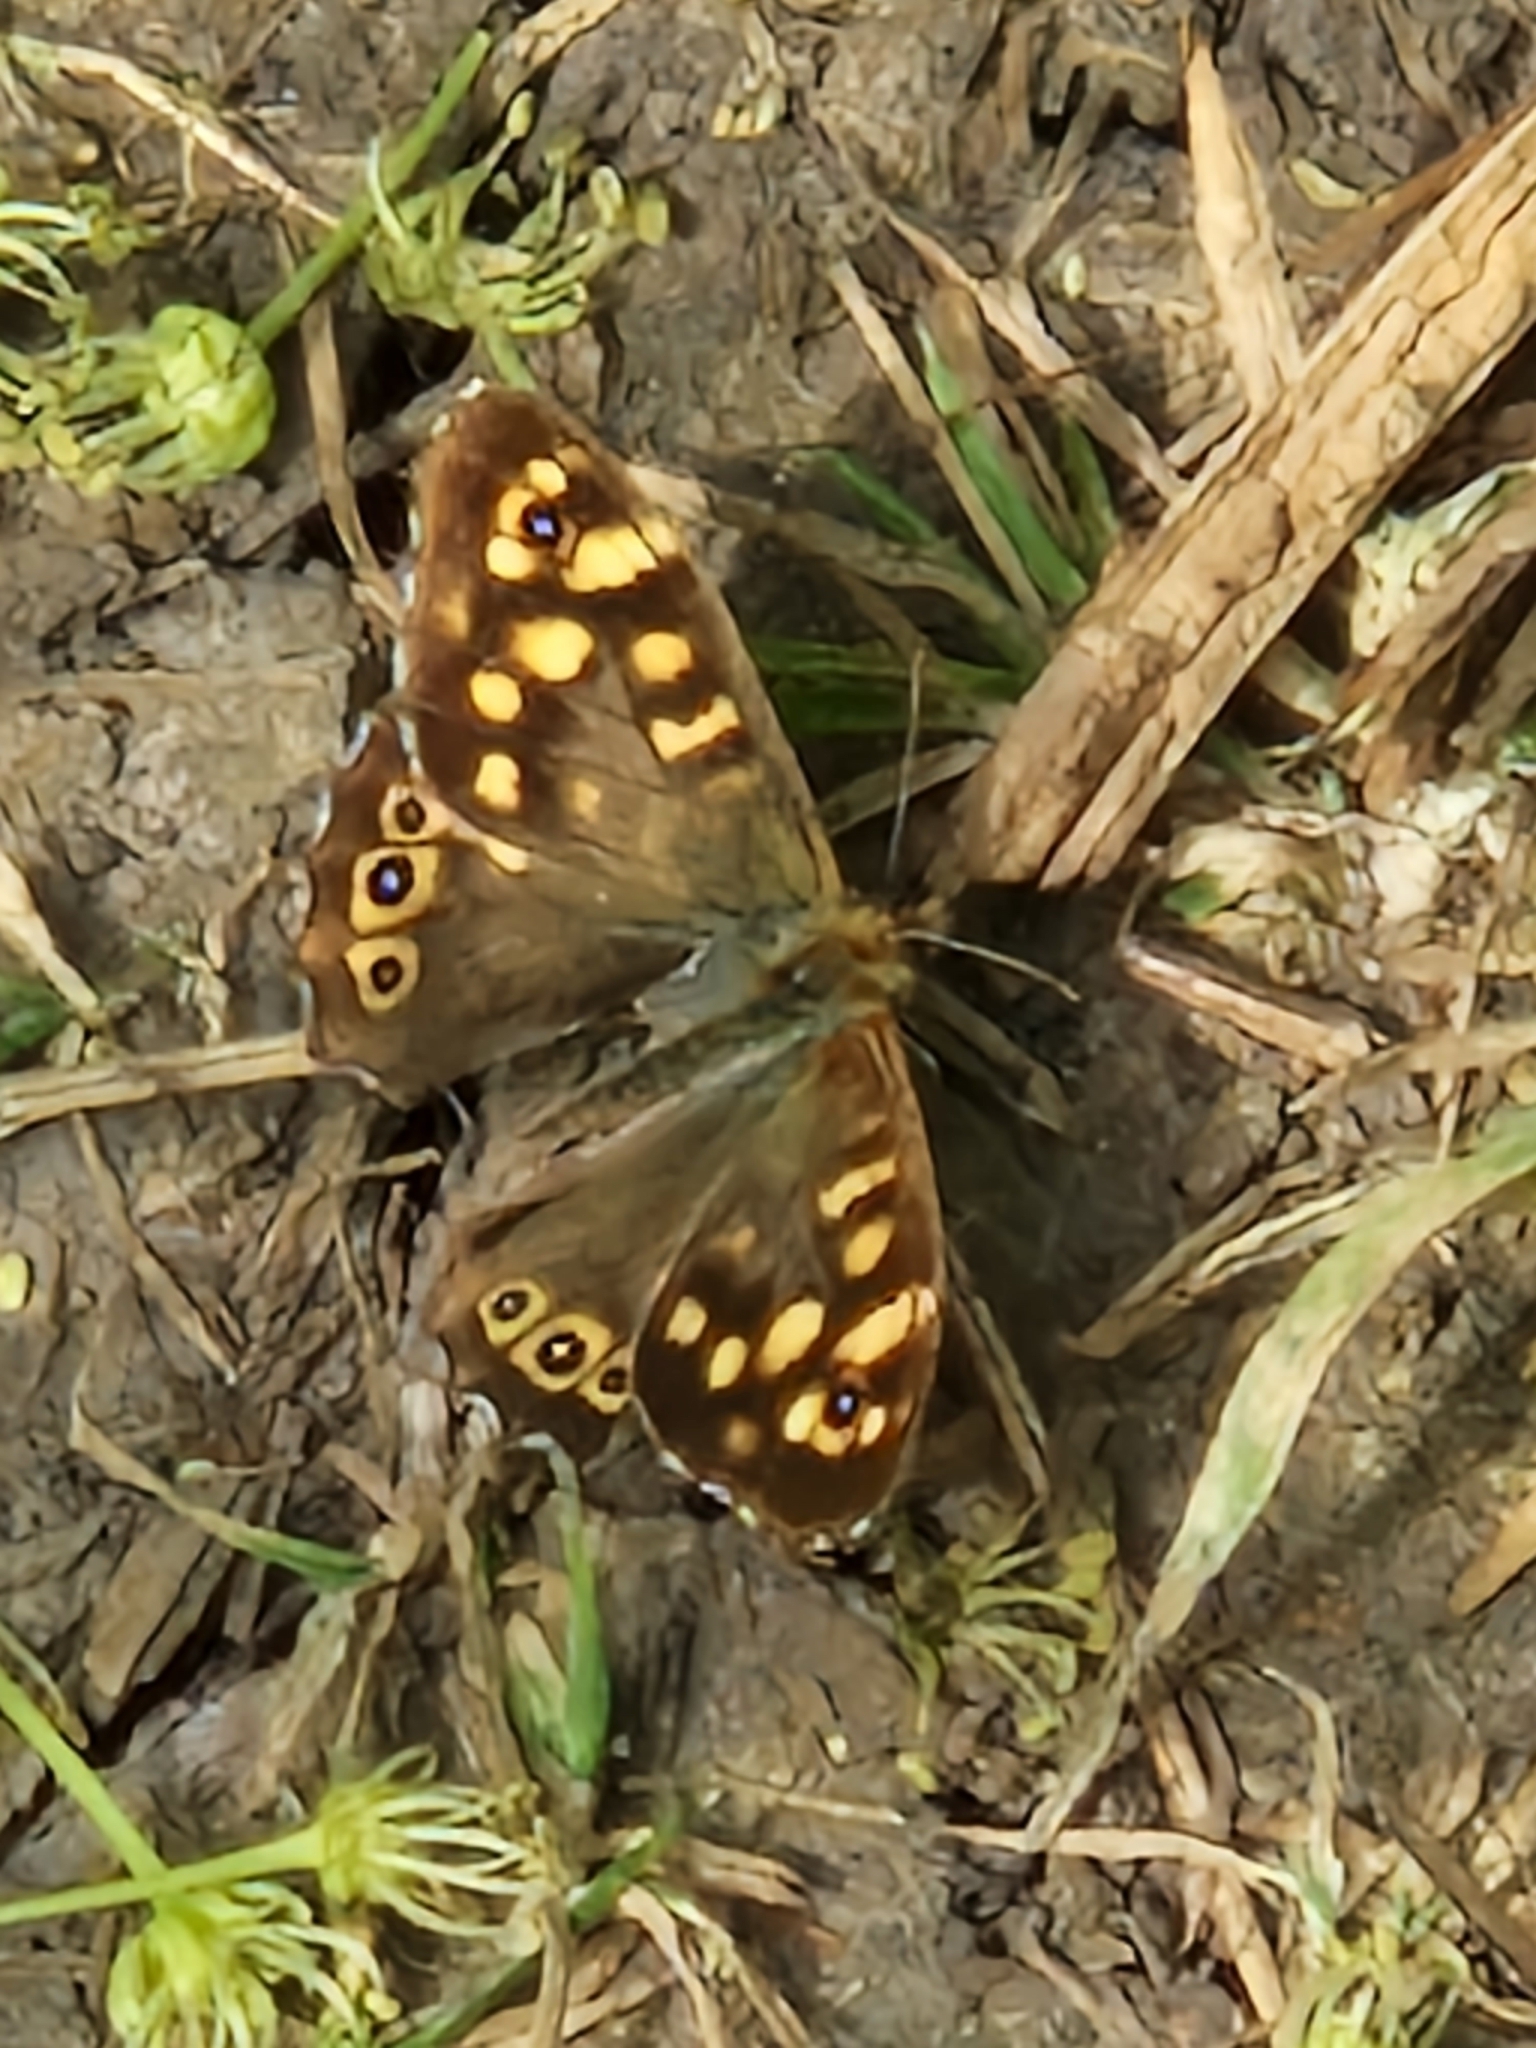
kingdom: Animalia
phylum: Arthropoda
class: Insecta
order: Lepidoptera
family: Nymphalidae
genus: Pararge
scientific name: Pararge aegeria
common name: Speckled wood
